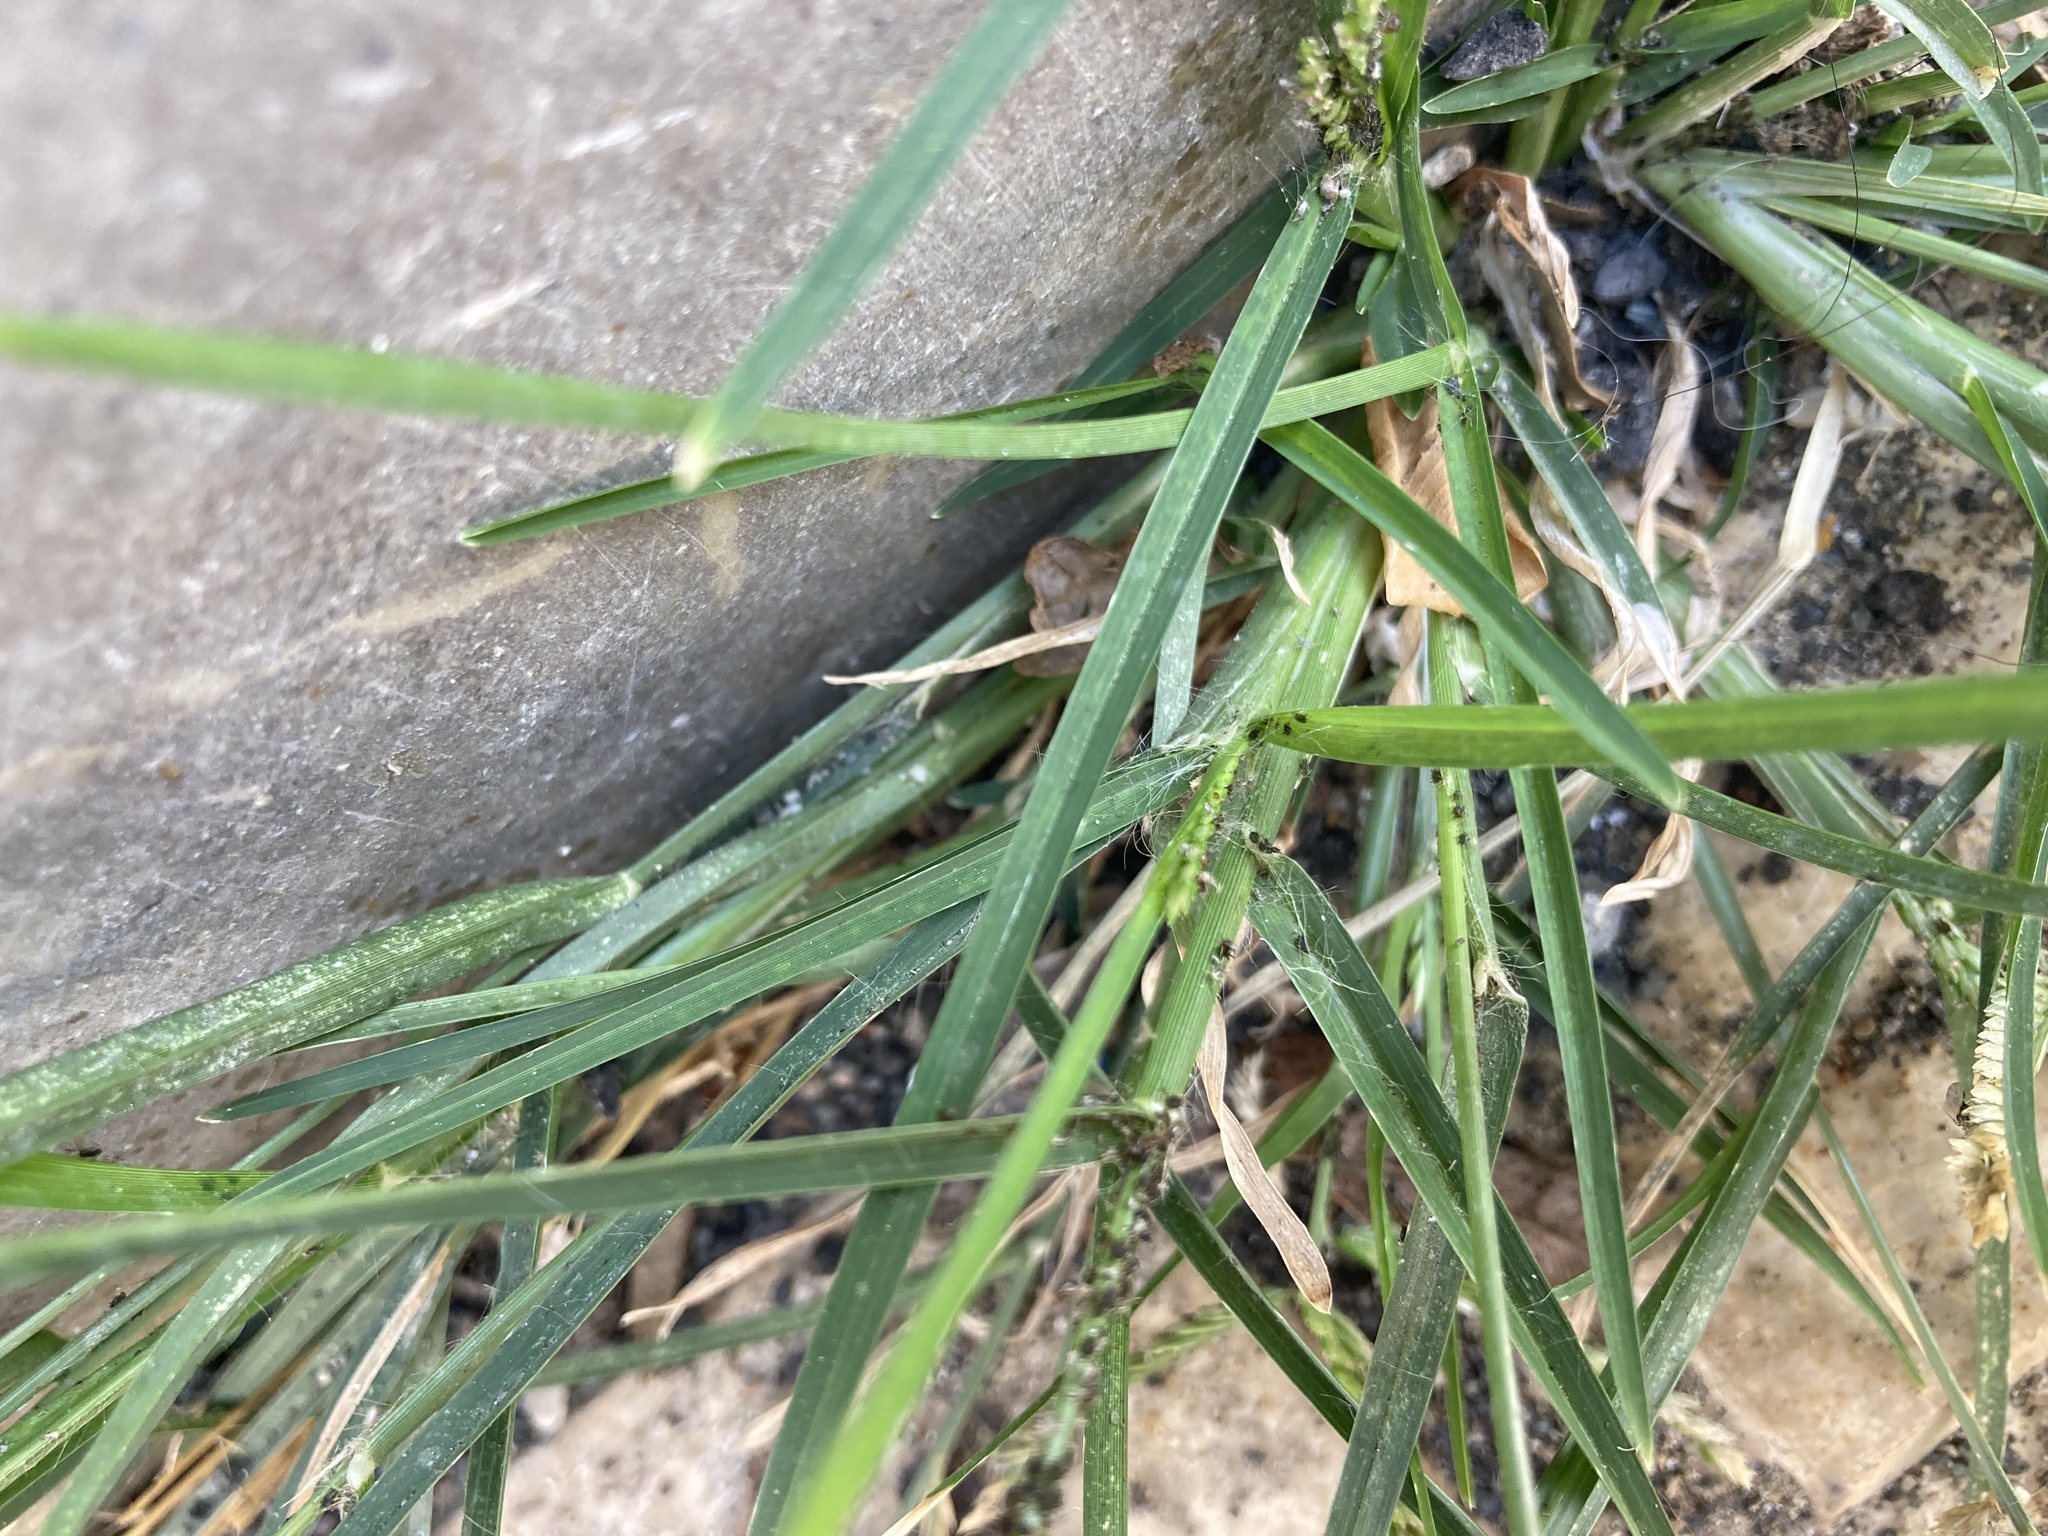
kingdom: Plantae
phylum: Tracheophyta
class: Liliopsida
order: Poales
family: Poaceae
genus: Eleusine
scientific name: Eleusine indica
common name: Yard-grass
